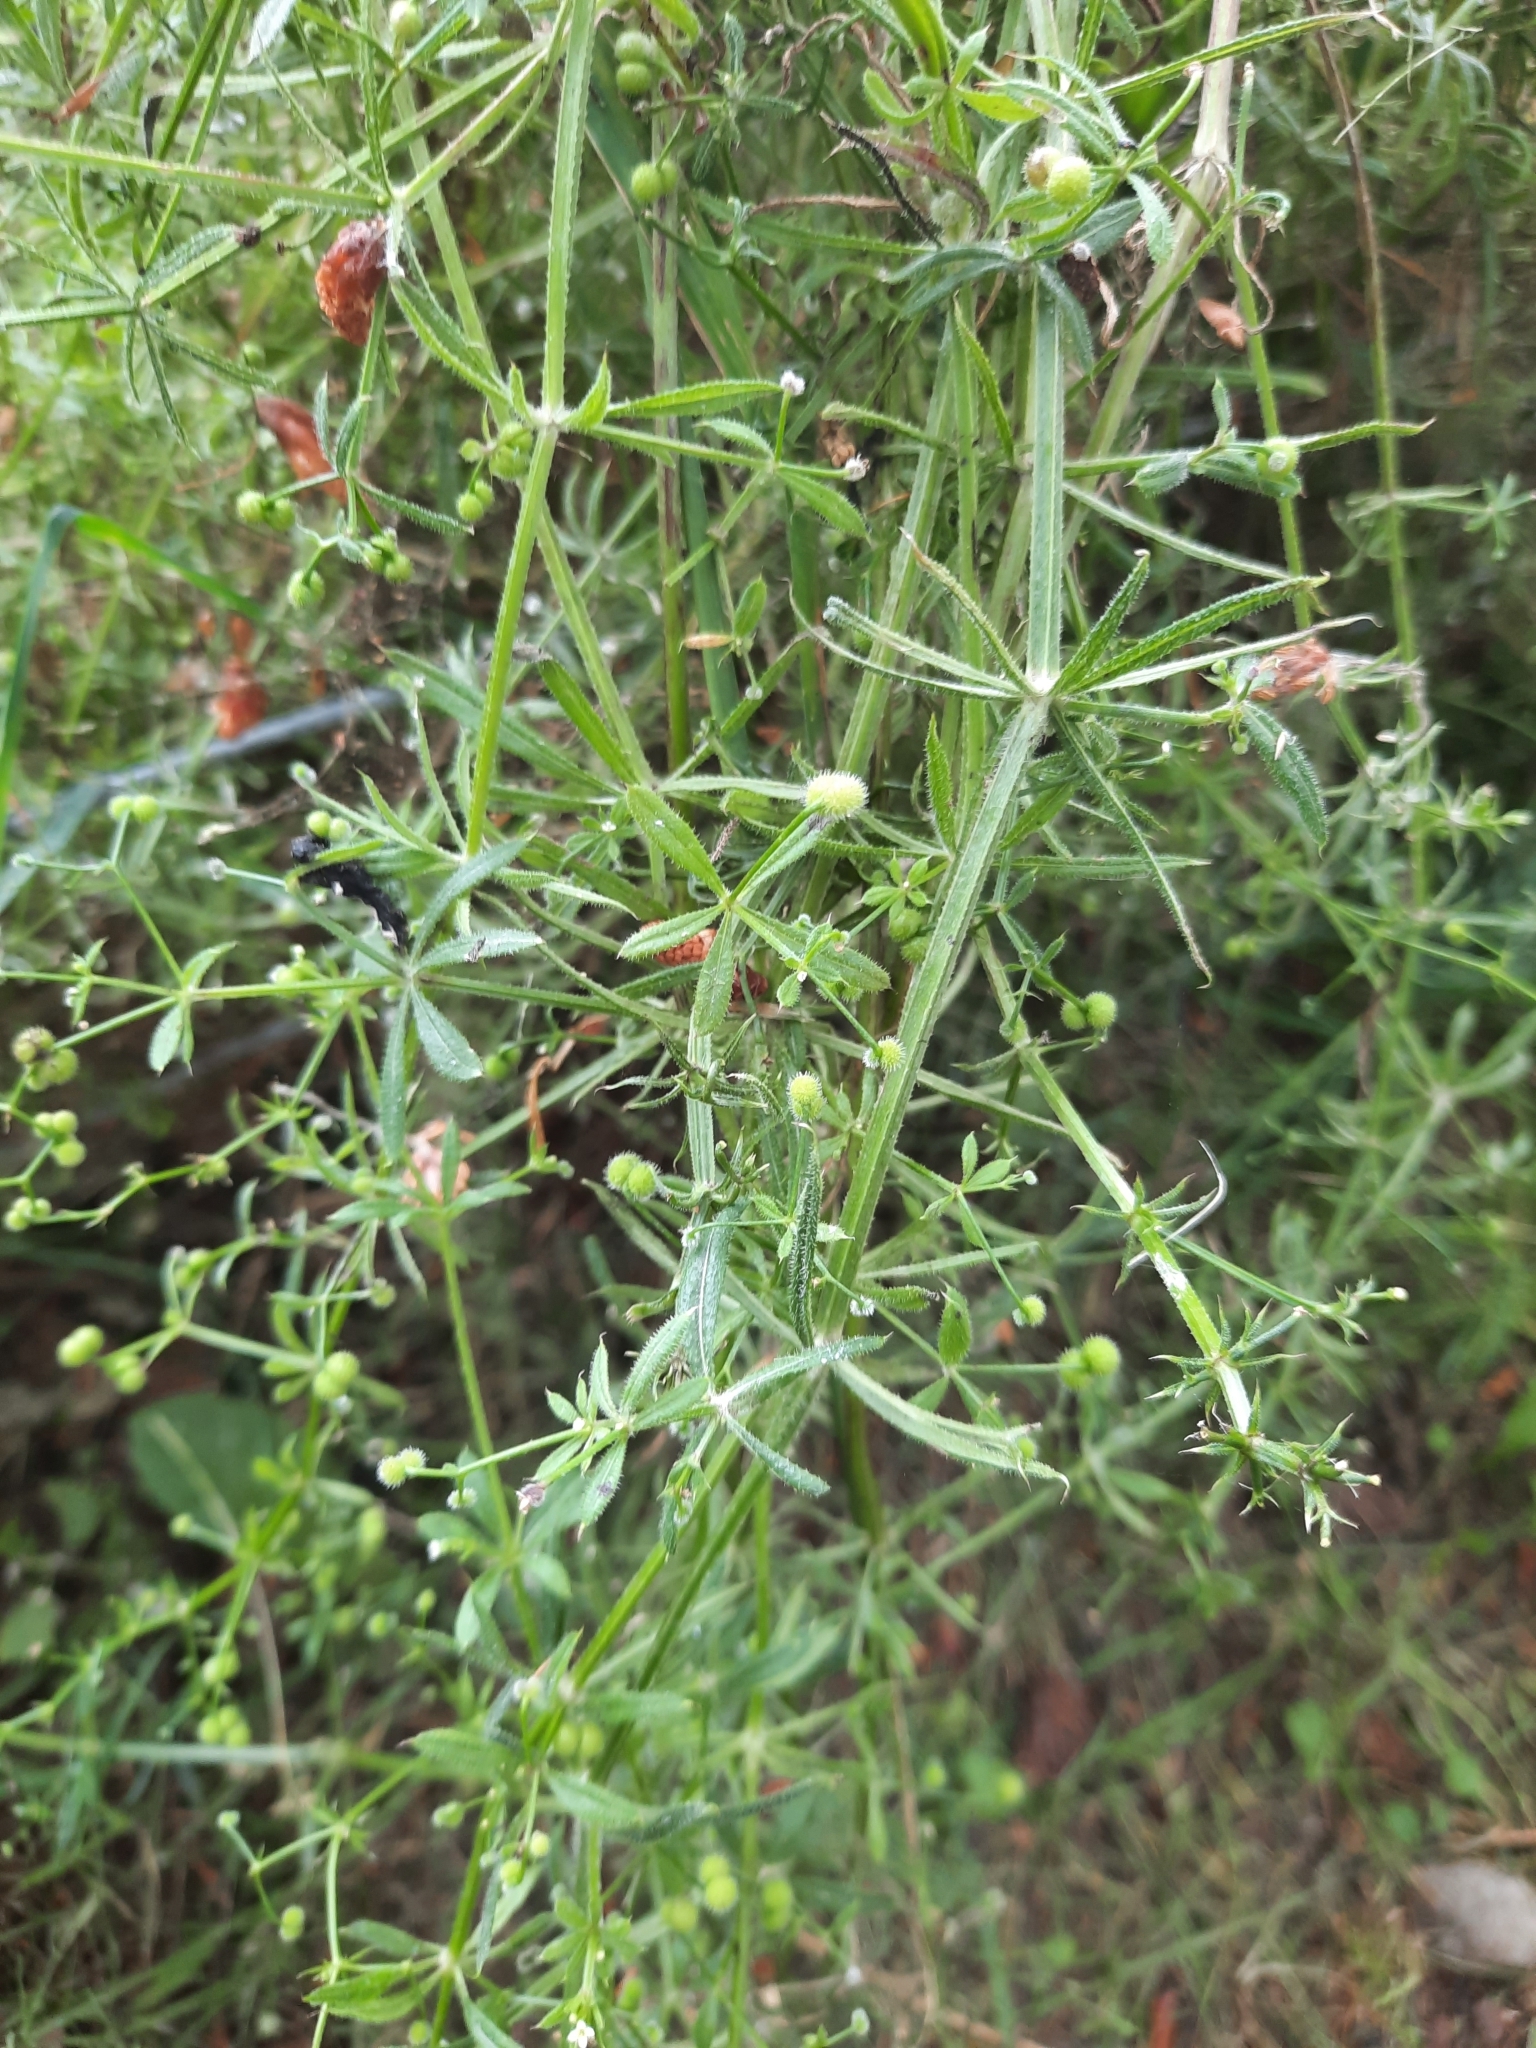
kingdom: Plantae
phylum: Tracheophyta
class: Magnoliopsida
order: Gentianales
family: Rubiaceae
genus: Galium
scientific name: Galium aparine
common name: Cleavers
